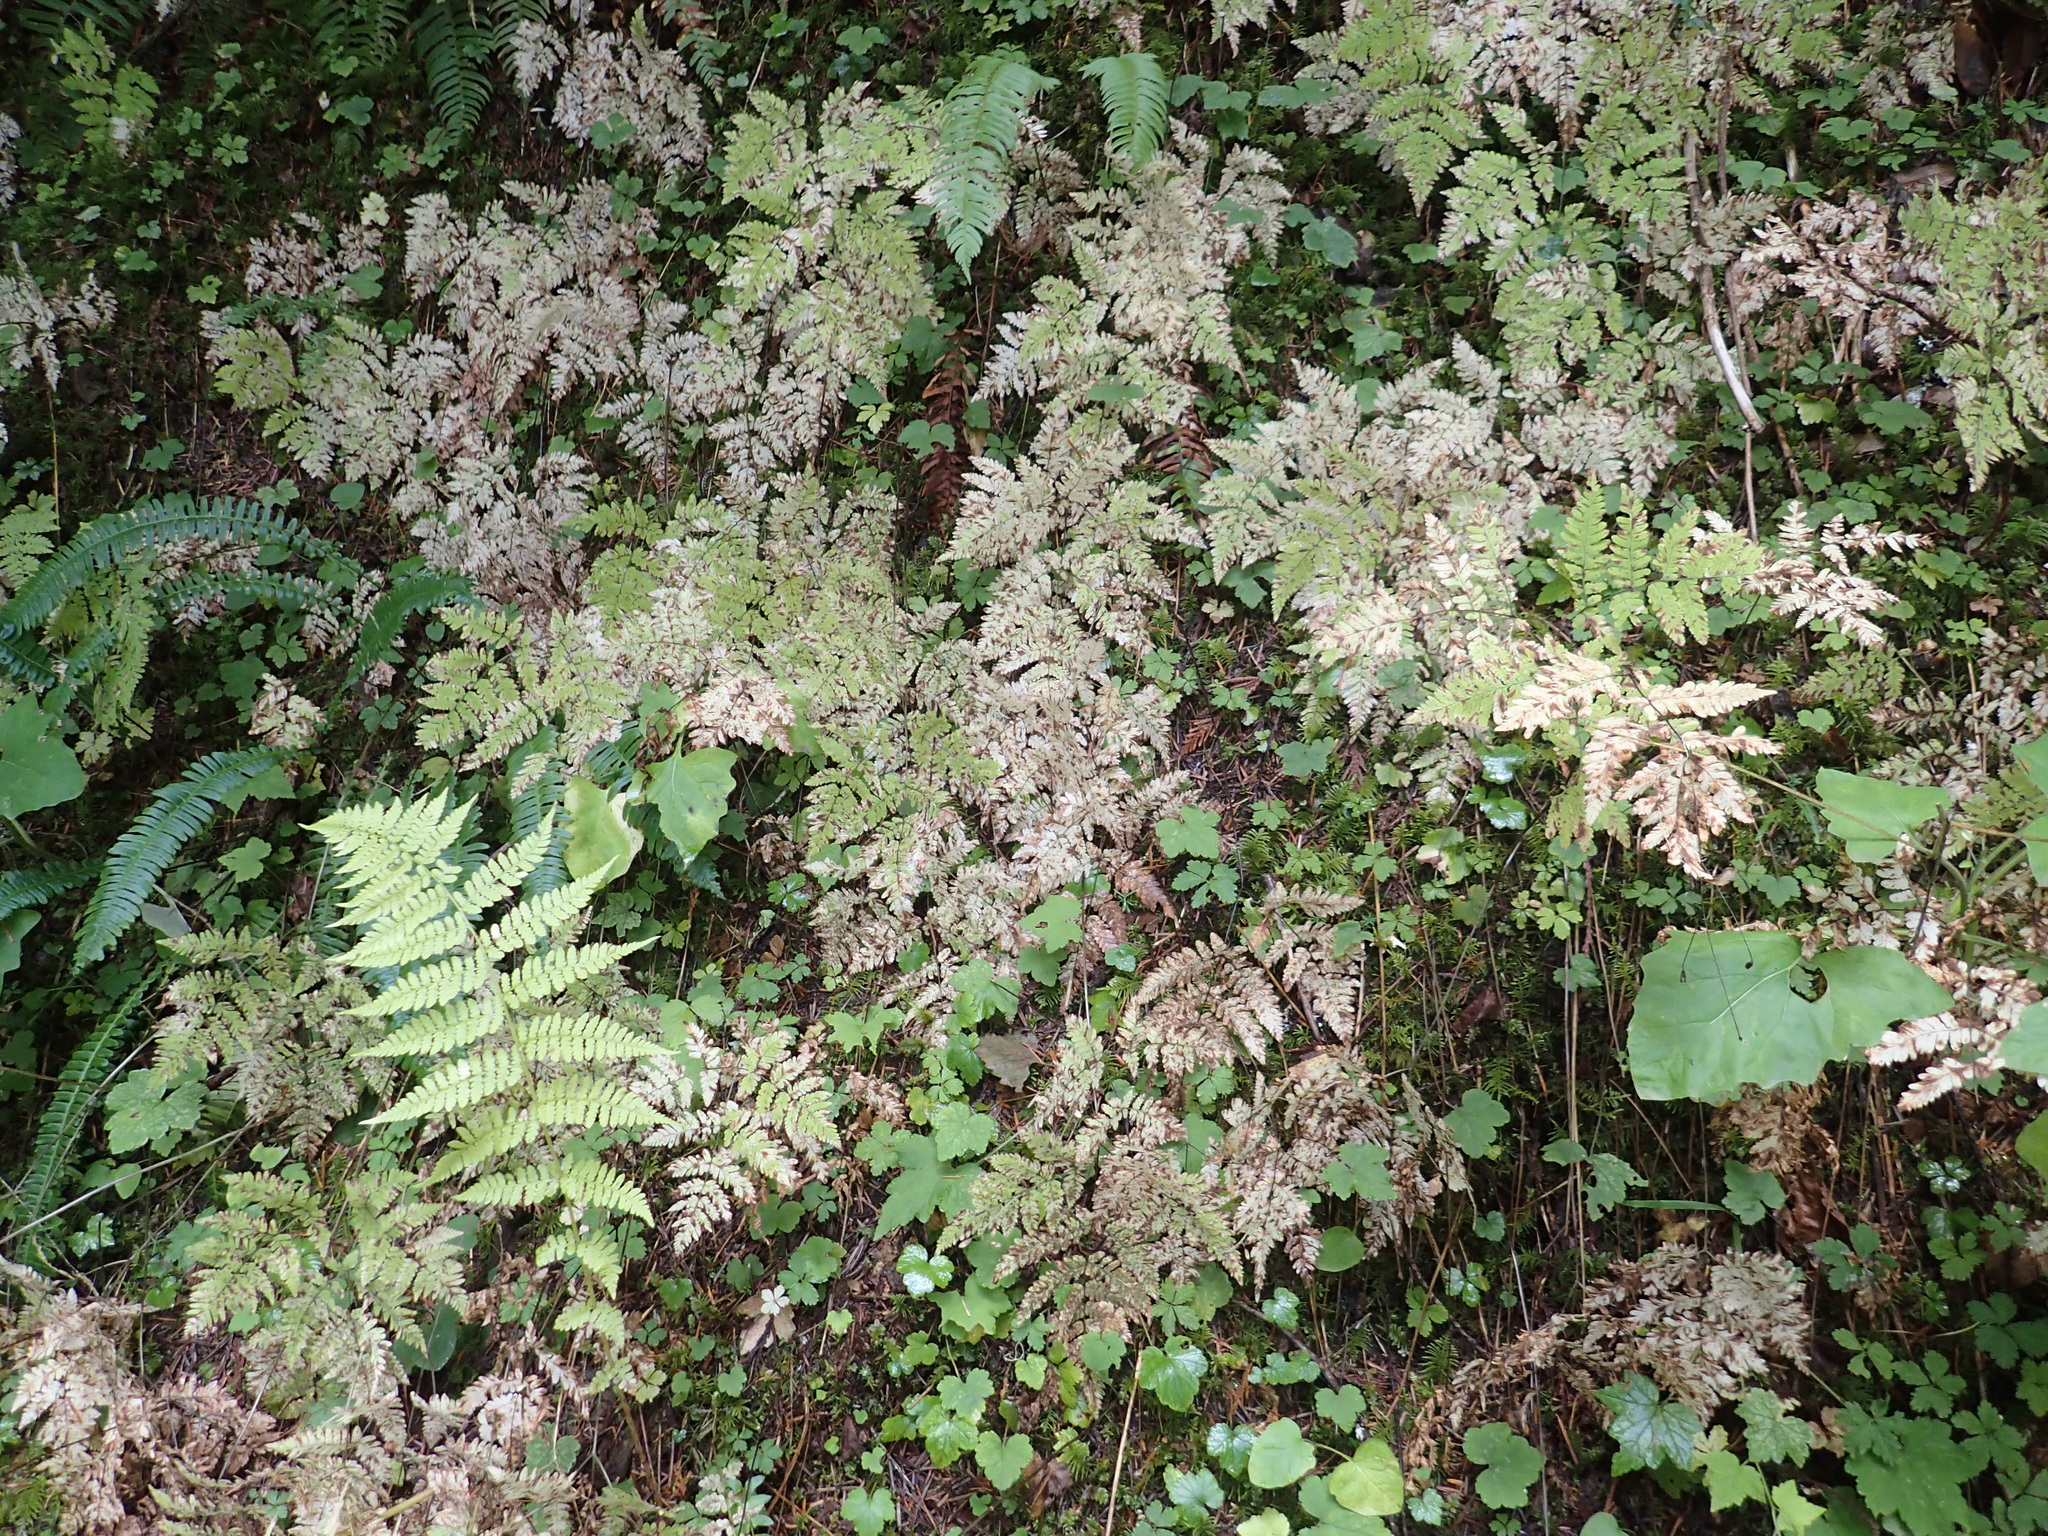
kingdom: Plantae
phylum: Tracheophyta
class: Polypodiopsida
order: Polypodiales
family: Cystopteridaceae
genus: Gymnocarpium
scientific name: Gymnocarpium disjunctum
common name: Western oak fern
